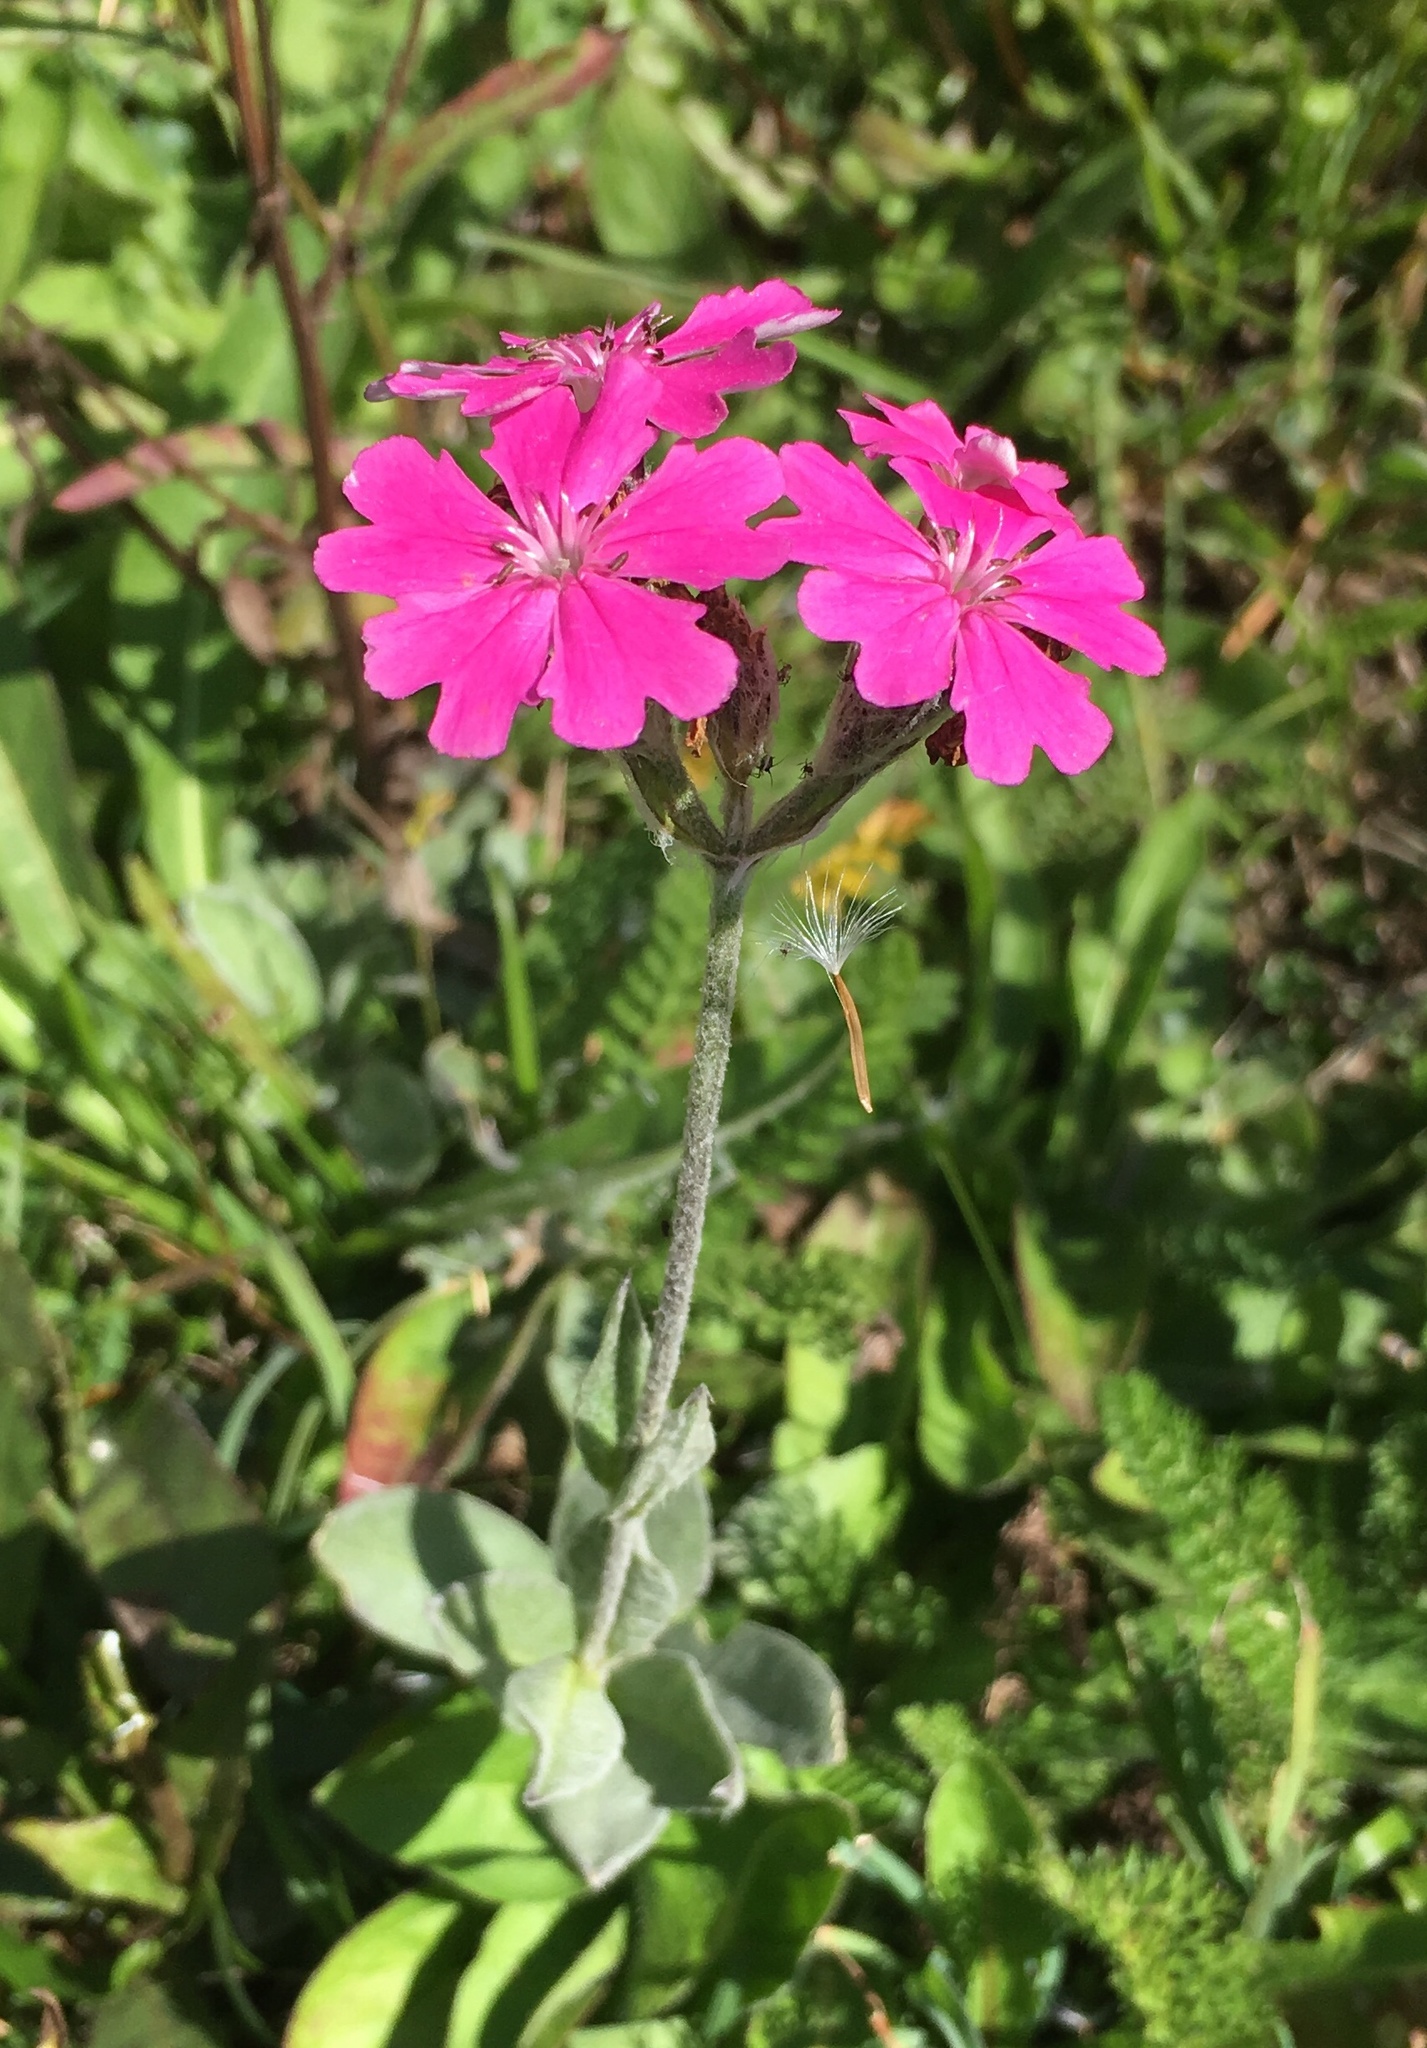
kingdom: Plantae
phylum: Tracheophyta
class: Magnoliopsida
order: Caryophyllales
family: Caryophyllaceae
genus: Silene
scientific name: Silene flos-jovis
